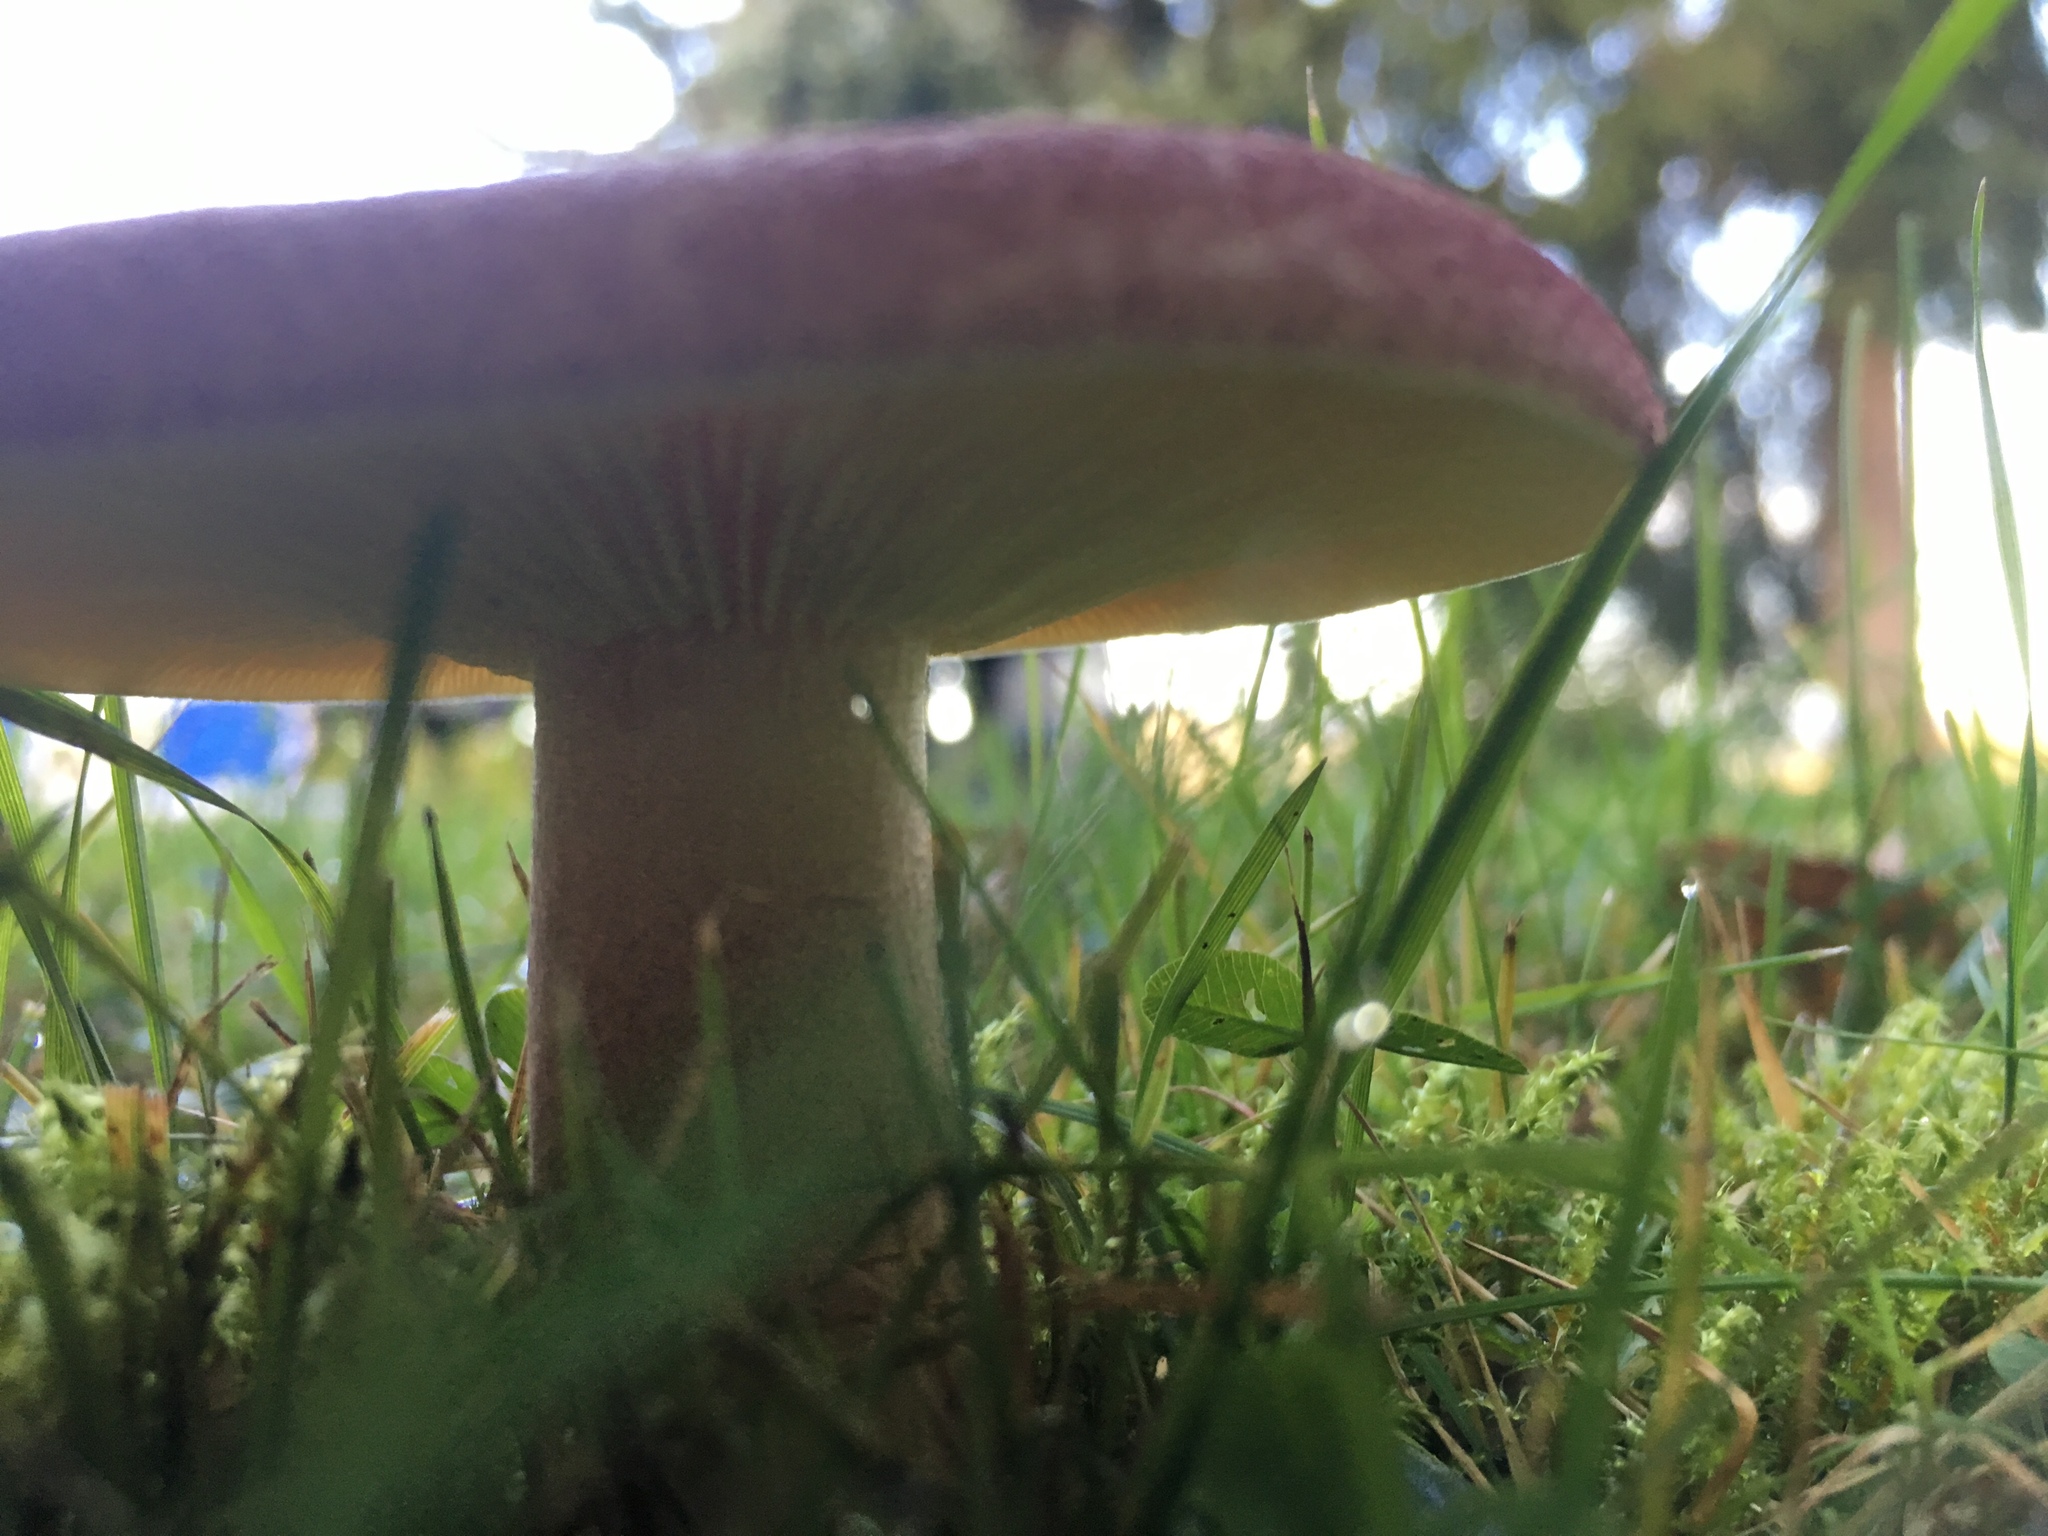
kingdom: Fungi
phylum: Basidiomycota
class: Agaricomycetes
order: Agaricales
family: Tricholomataceae
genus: Tricholomopsis
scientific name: Tricholomopsis rutilans
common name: Plums and custard
